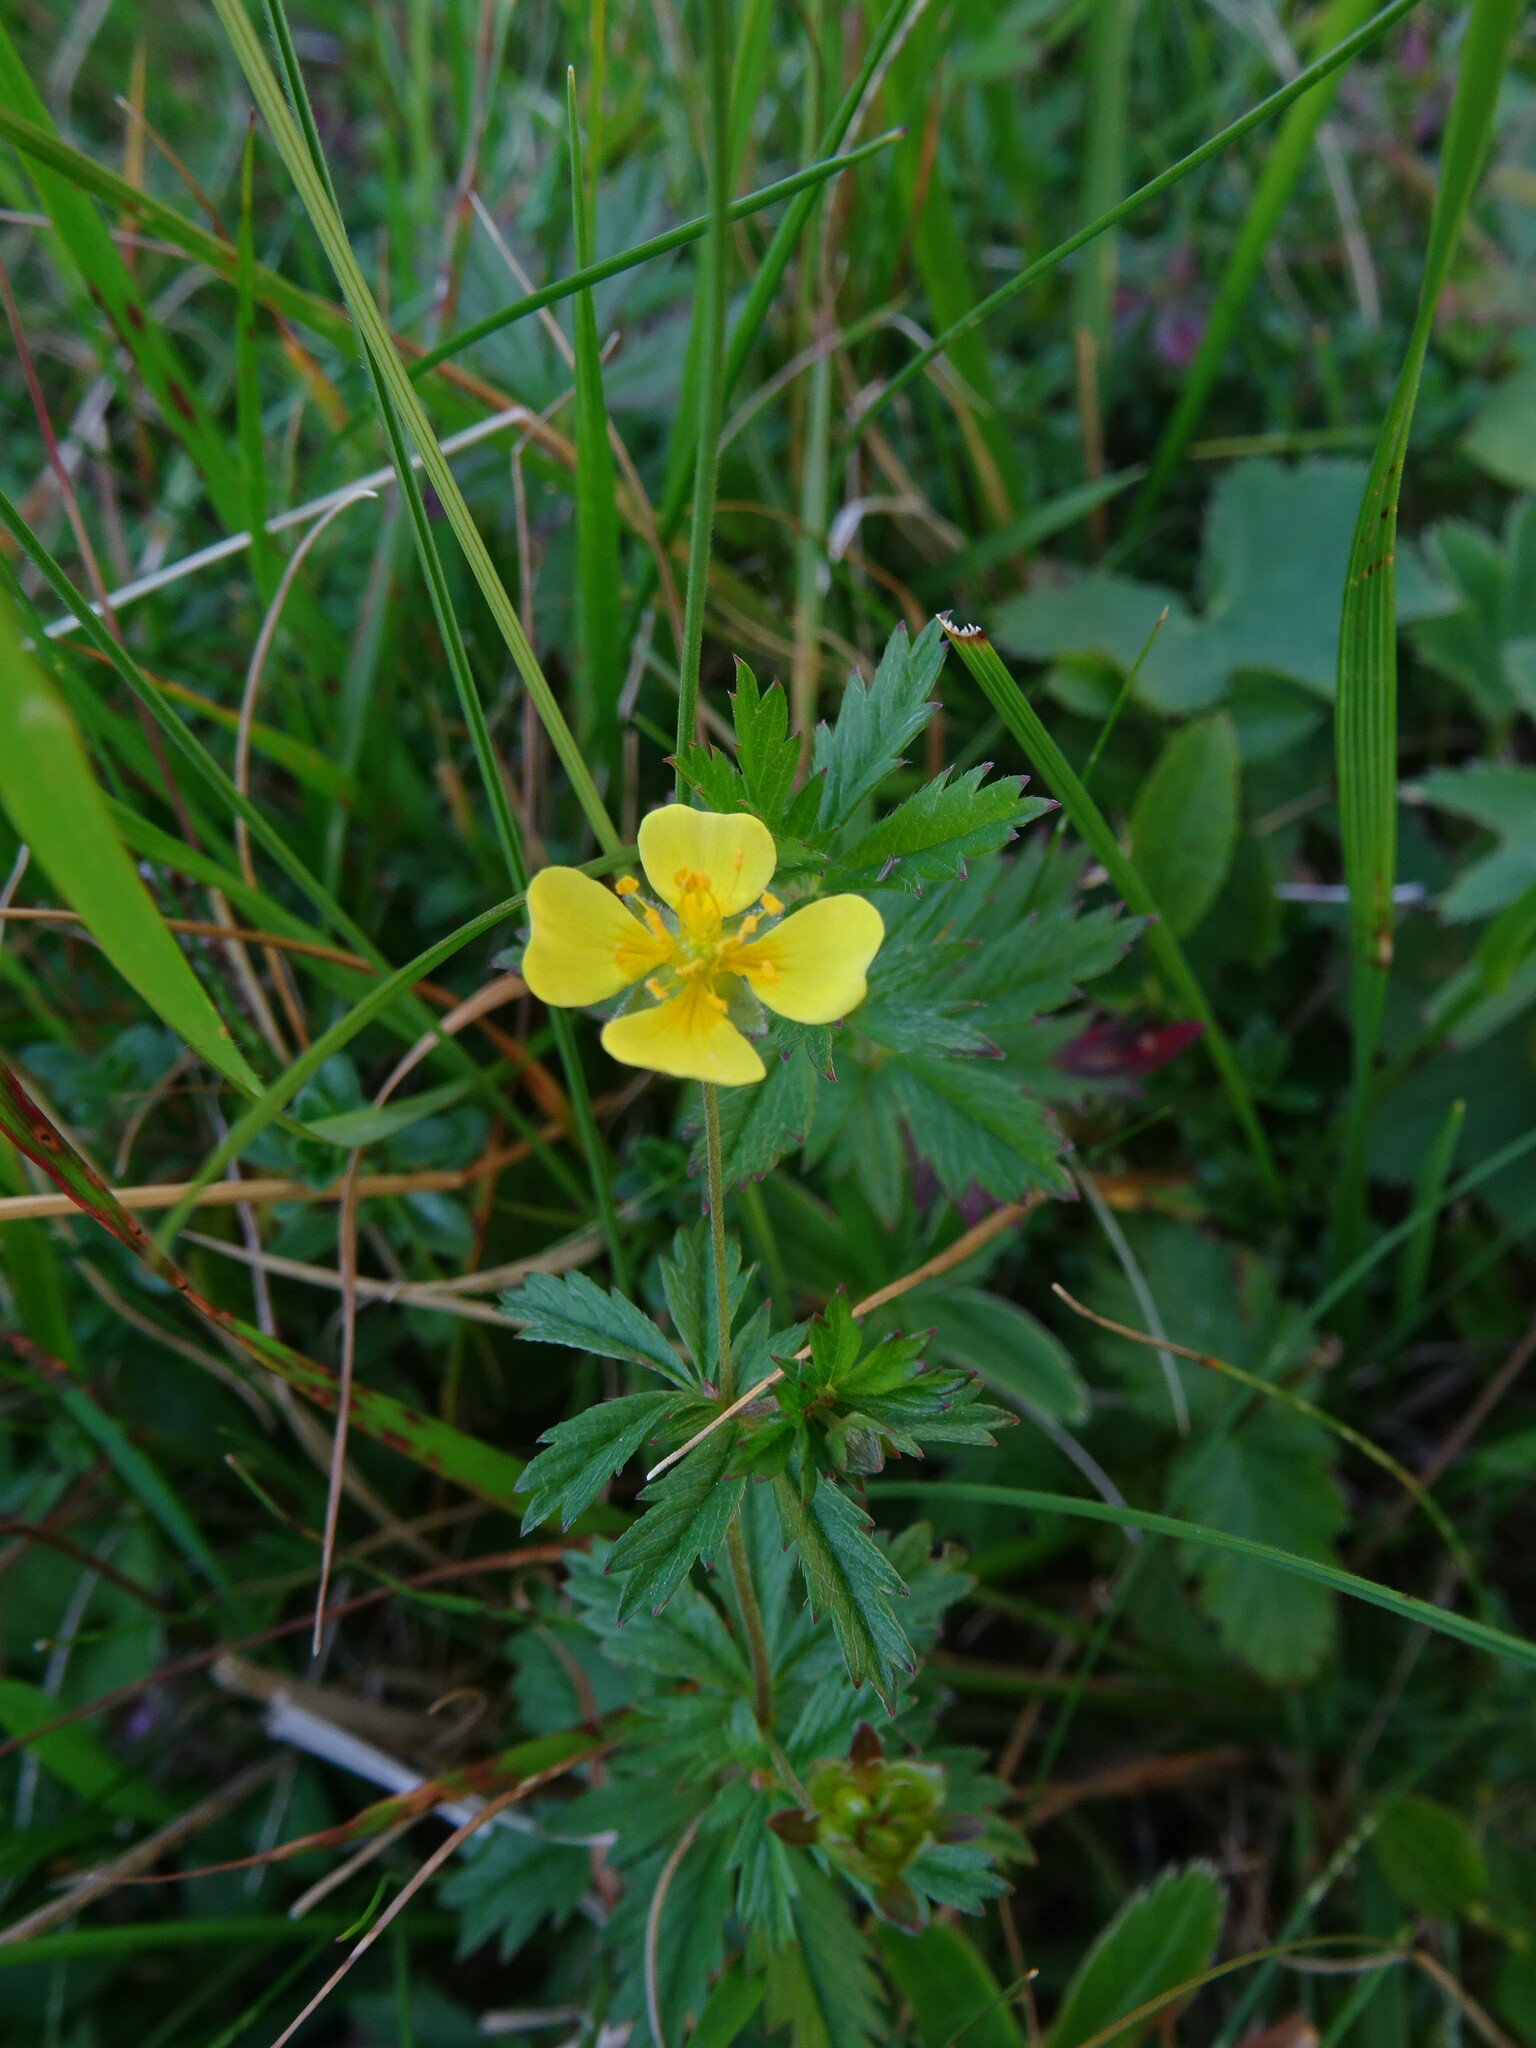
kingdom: Plantae
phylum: Tracheophyta
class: Magnoliopsida
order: Rosales
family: Rosaceae
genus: Potentilla
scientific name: Potentilla erecta
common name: Tormentil
